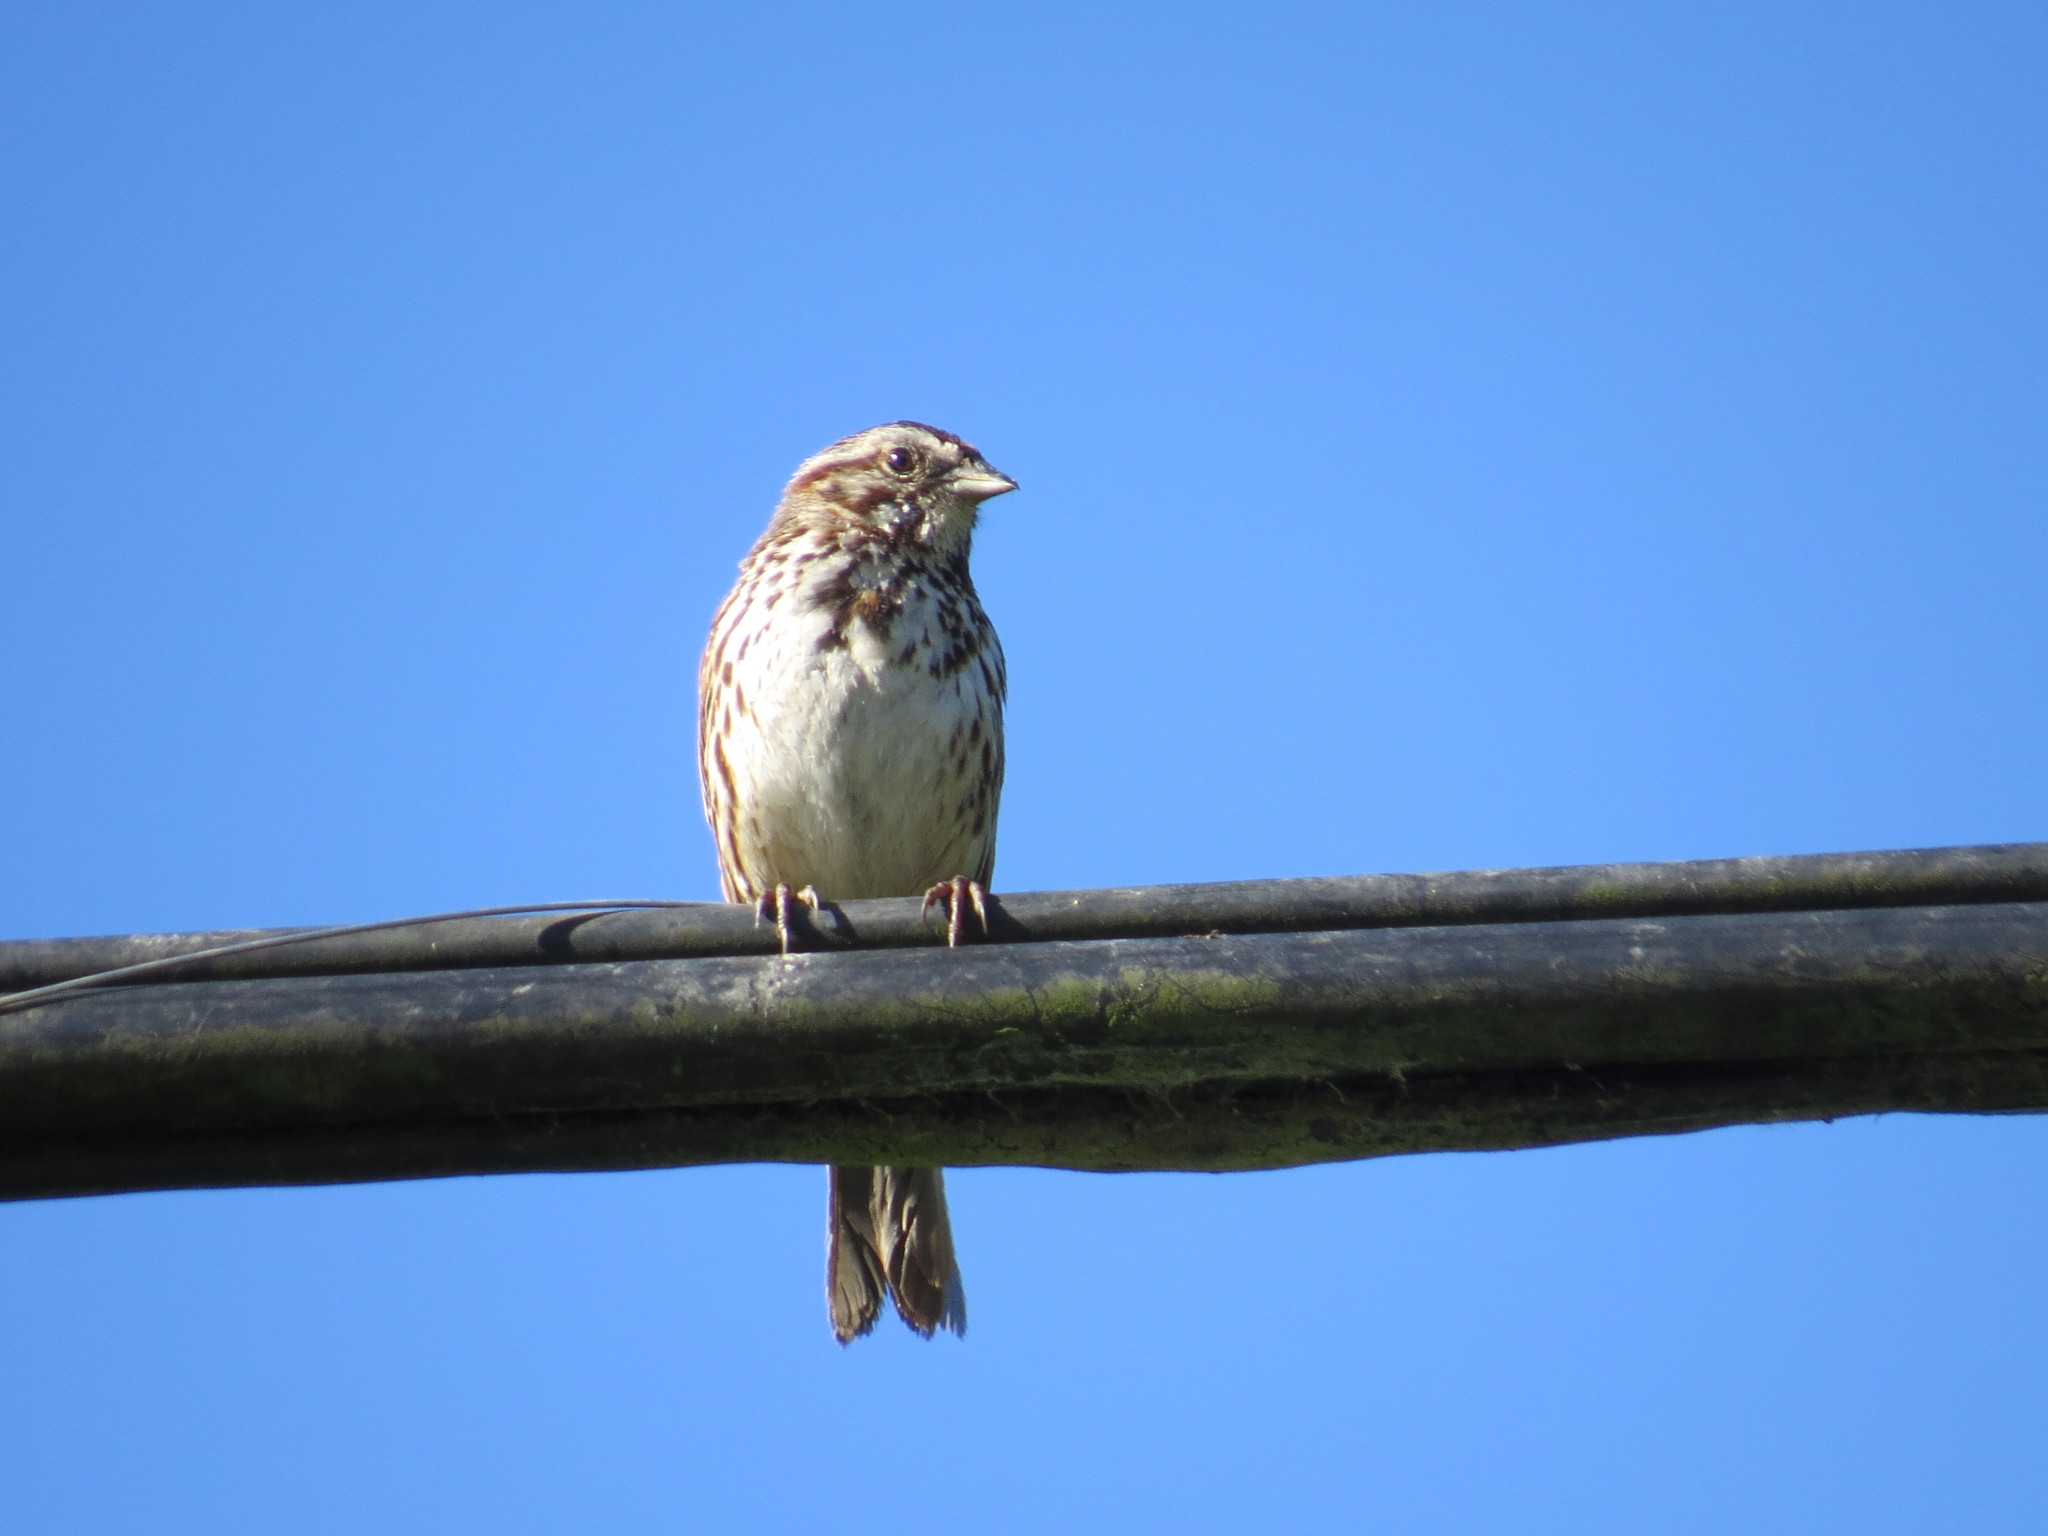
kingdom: Animalia
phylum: Chordata
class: Aves
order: Passeriformes
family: Passerellidae
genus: Melospiza
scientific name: Melospiza melodia
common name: Song sparrow
